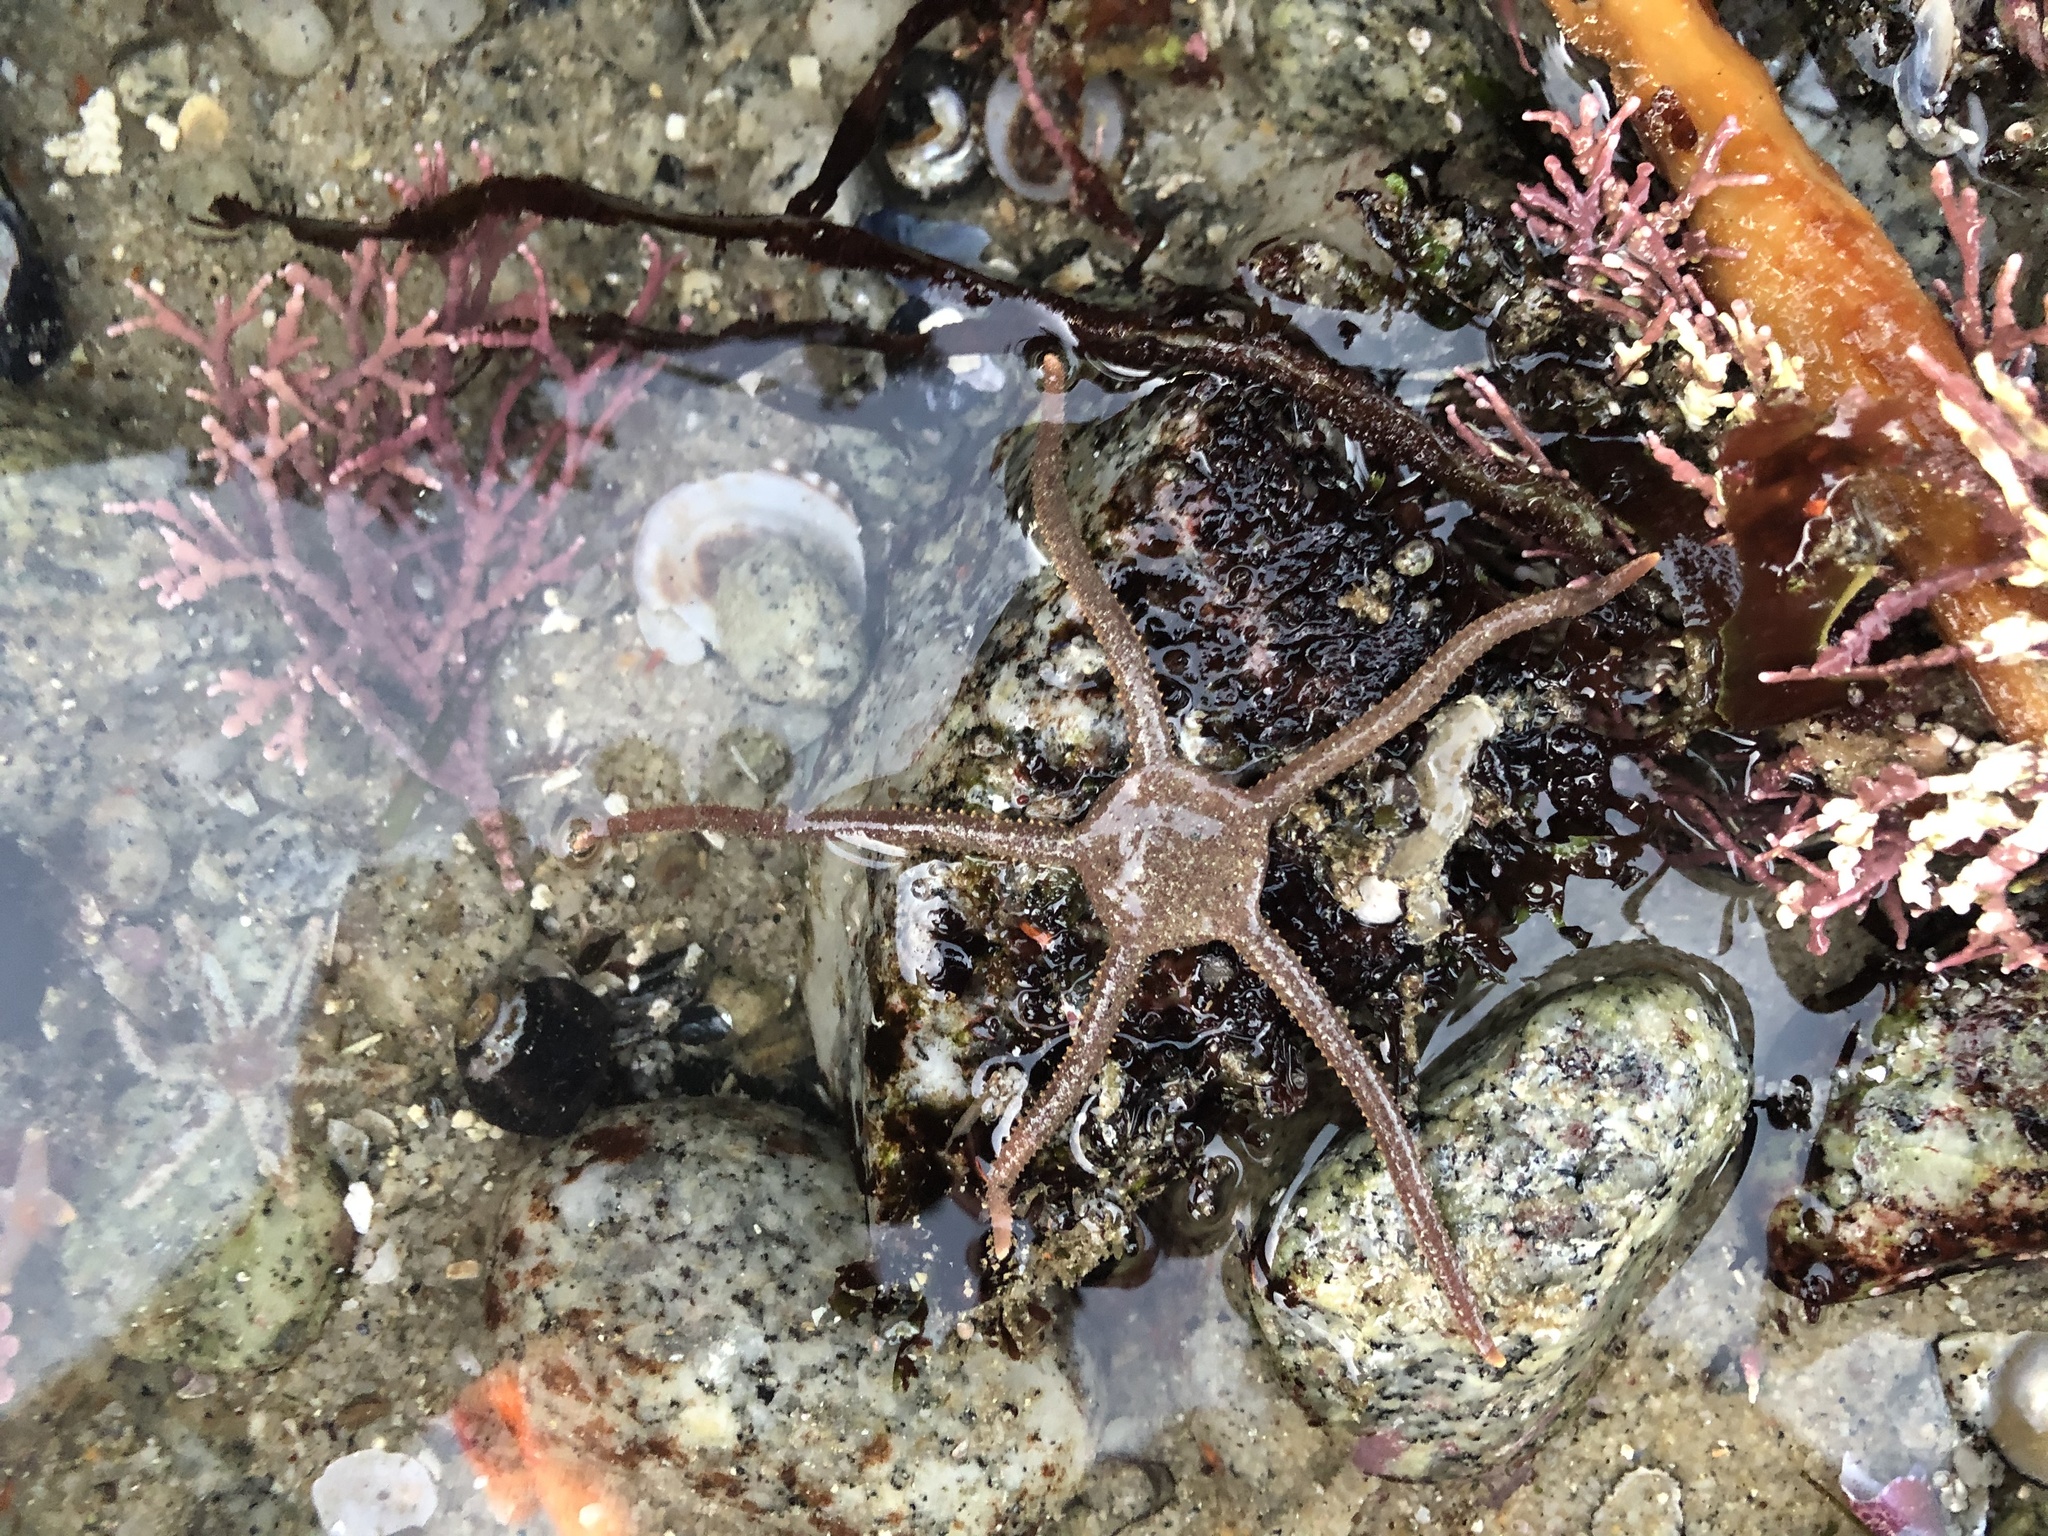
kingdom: Animalia
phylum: Echinodermata
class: Ophiuroidea
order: Amphilepidida
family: Hemieuryalidae
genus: Ophioplocus
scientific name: Ophioplocus esmarki
